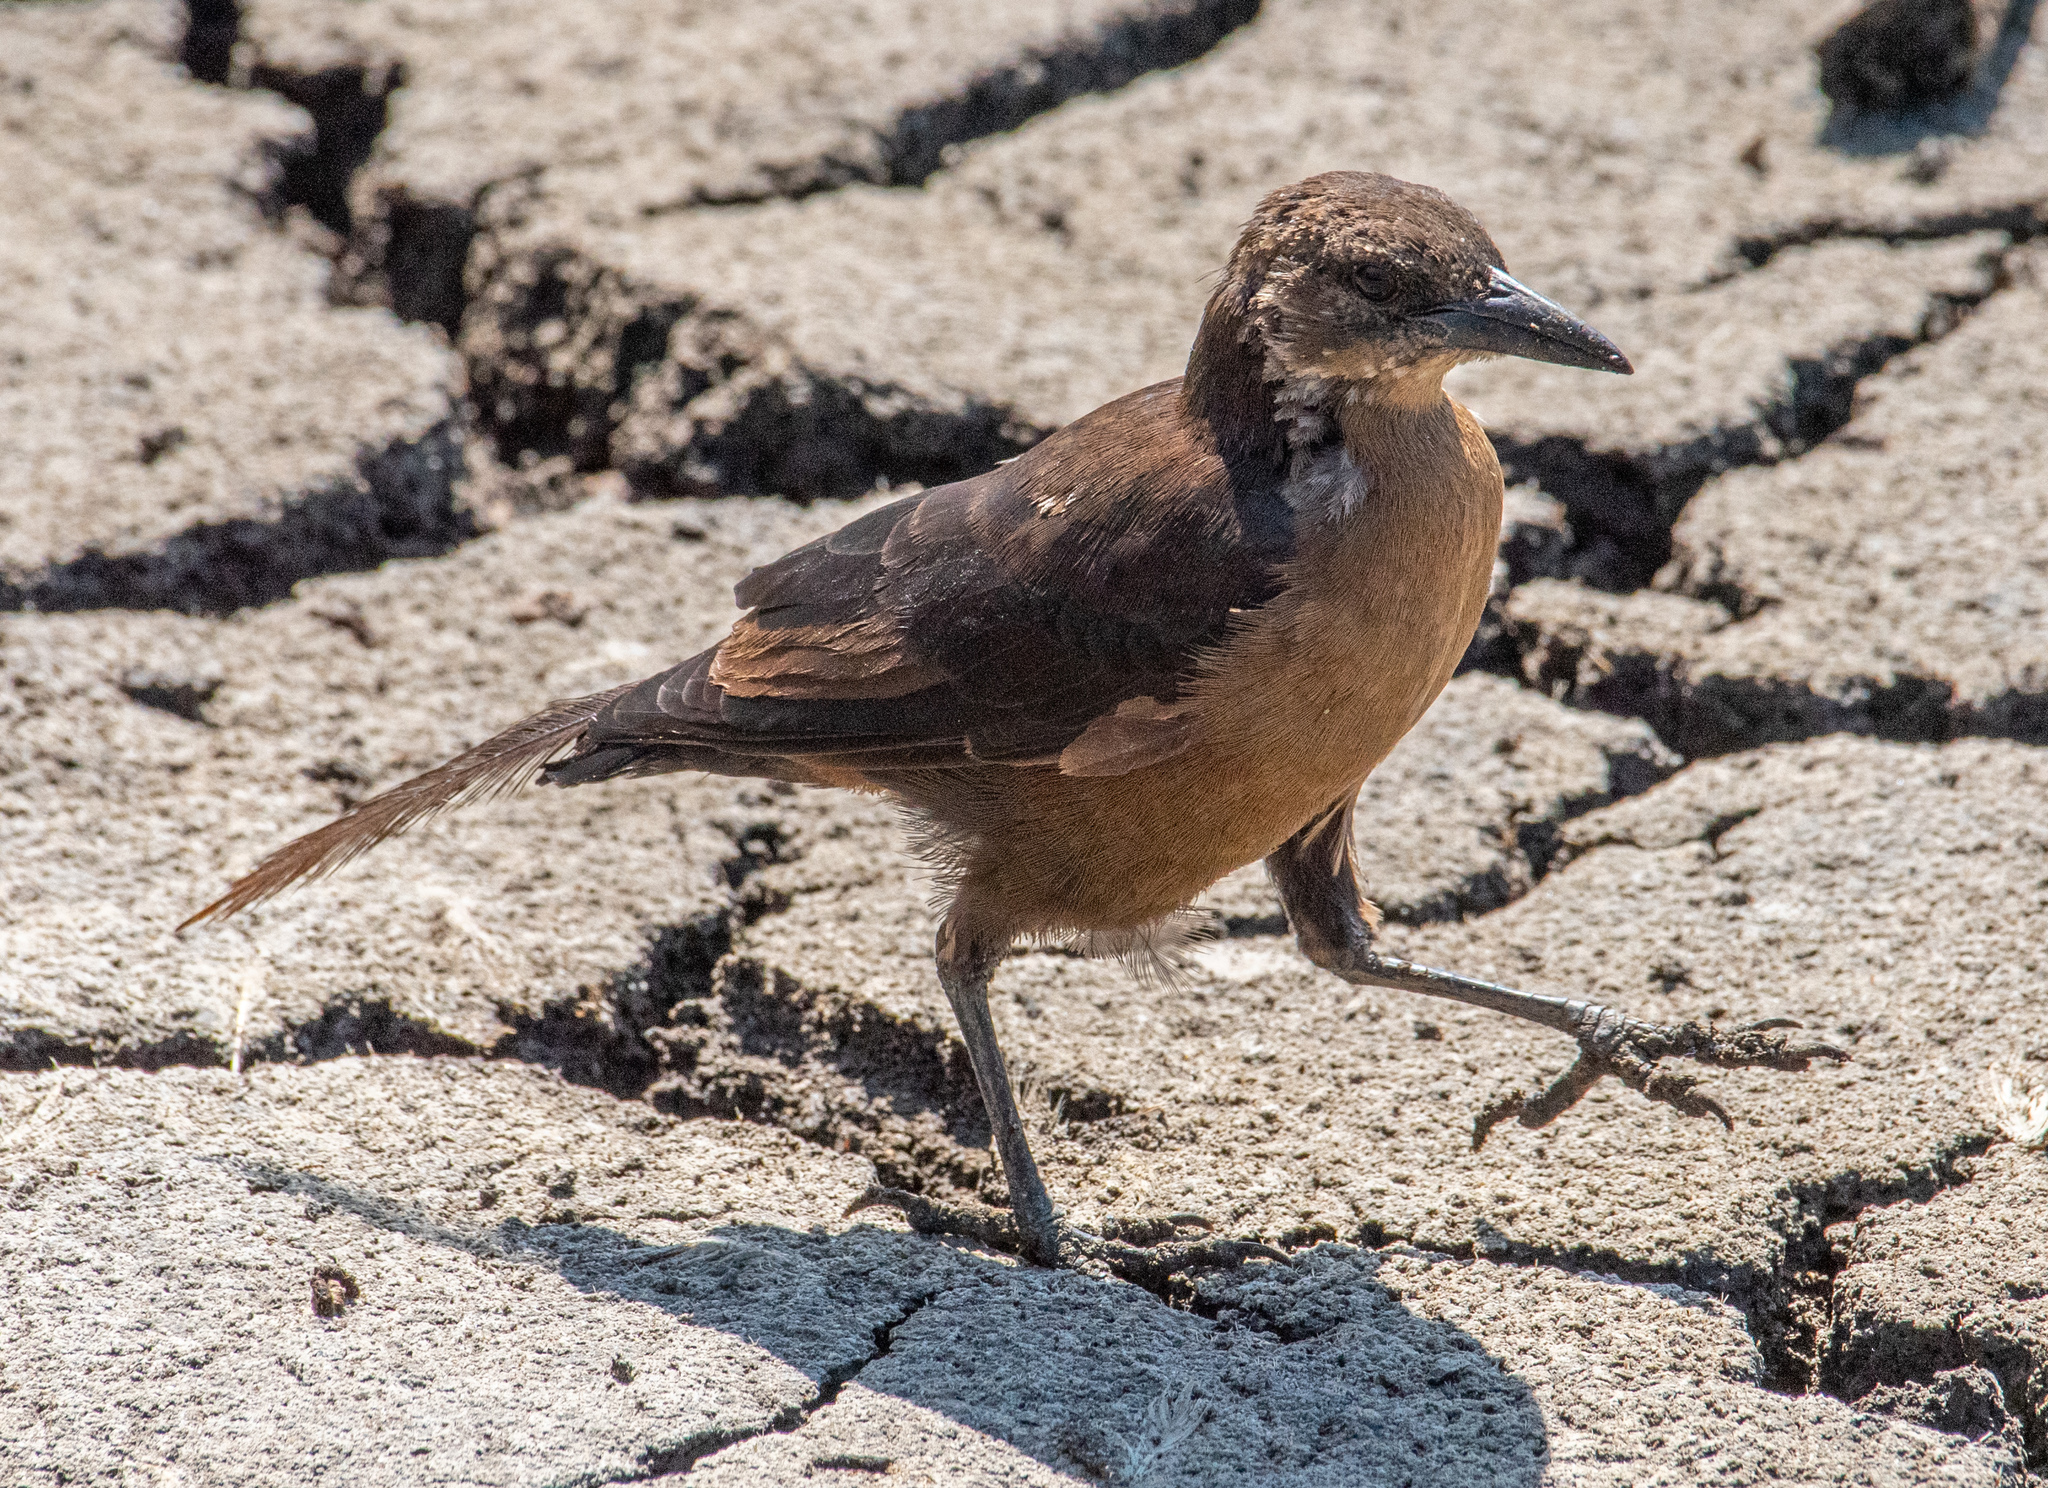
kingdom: Animalia
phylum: Chordata
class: Aves
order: Passeriformes
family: Icteridae
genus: Quiscalus
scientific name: Quiscalus mexicanus
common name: Great-tailed grackle
